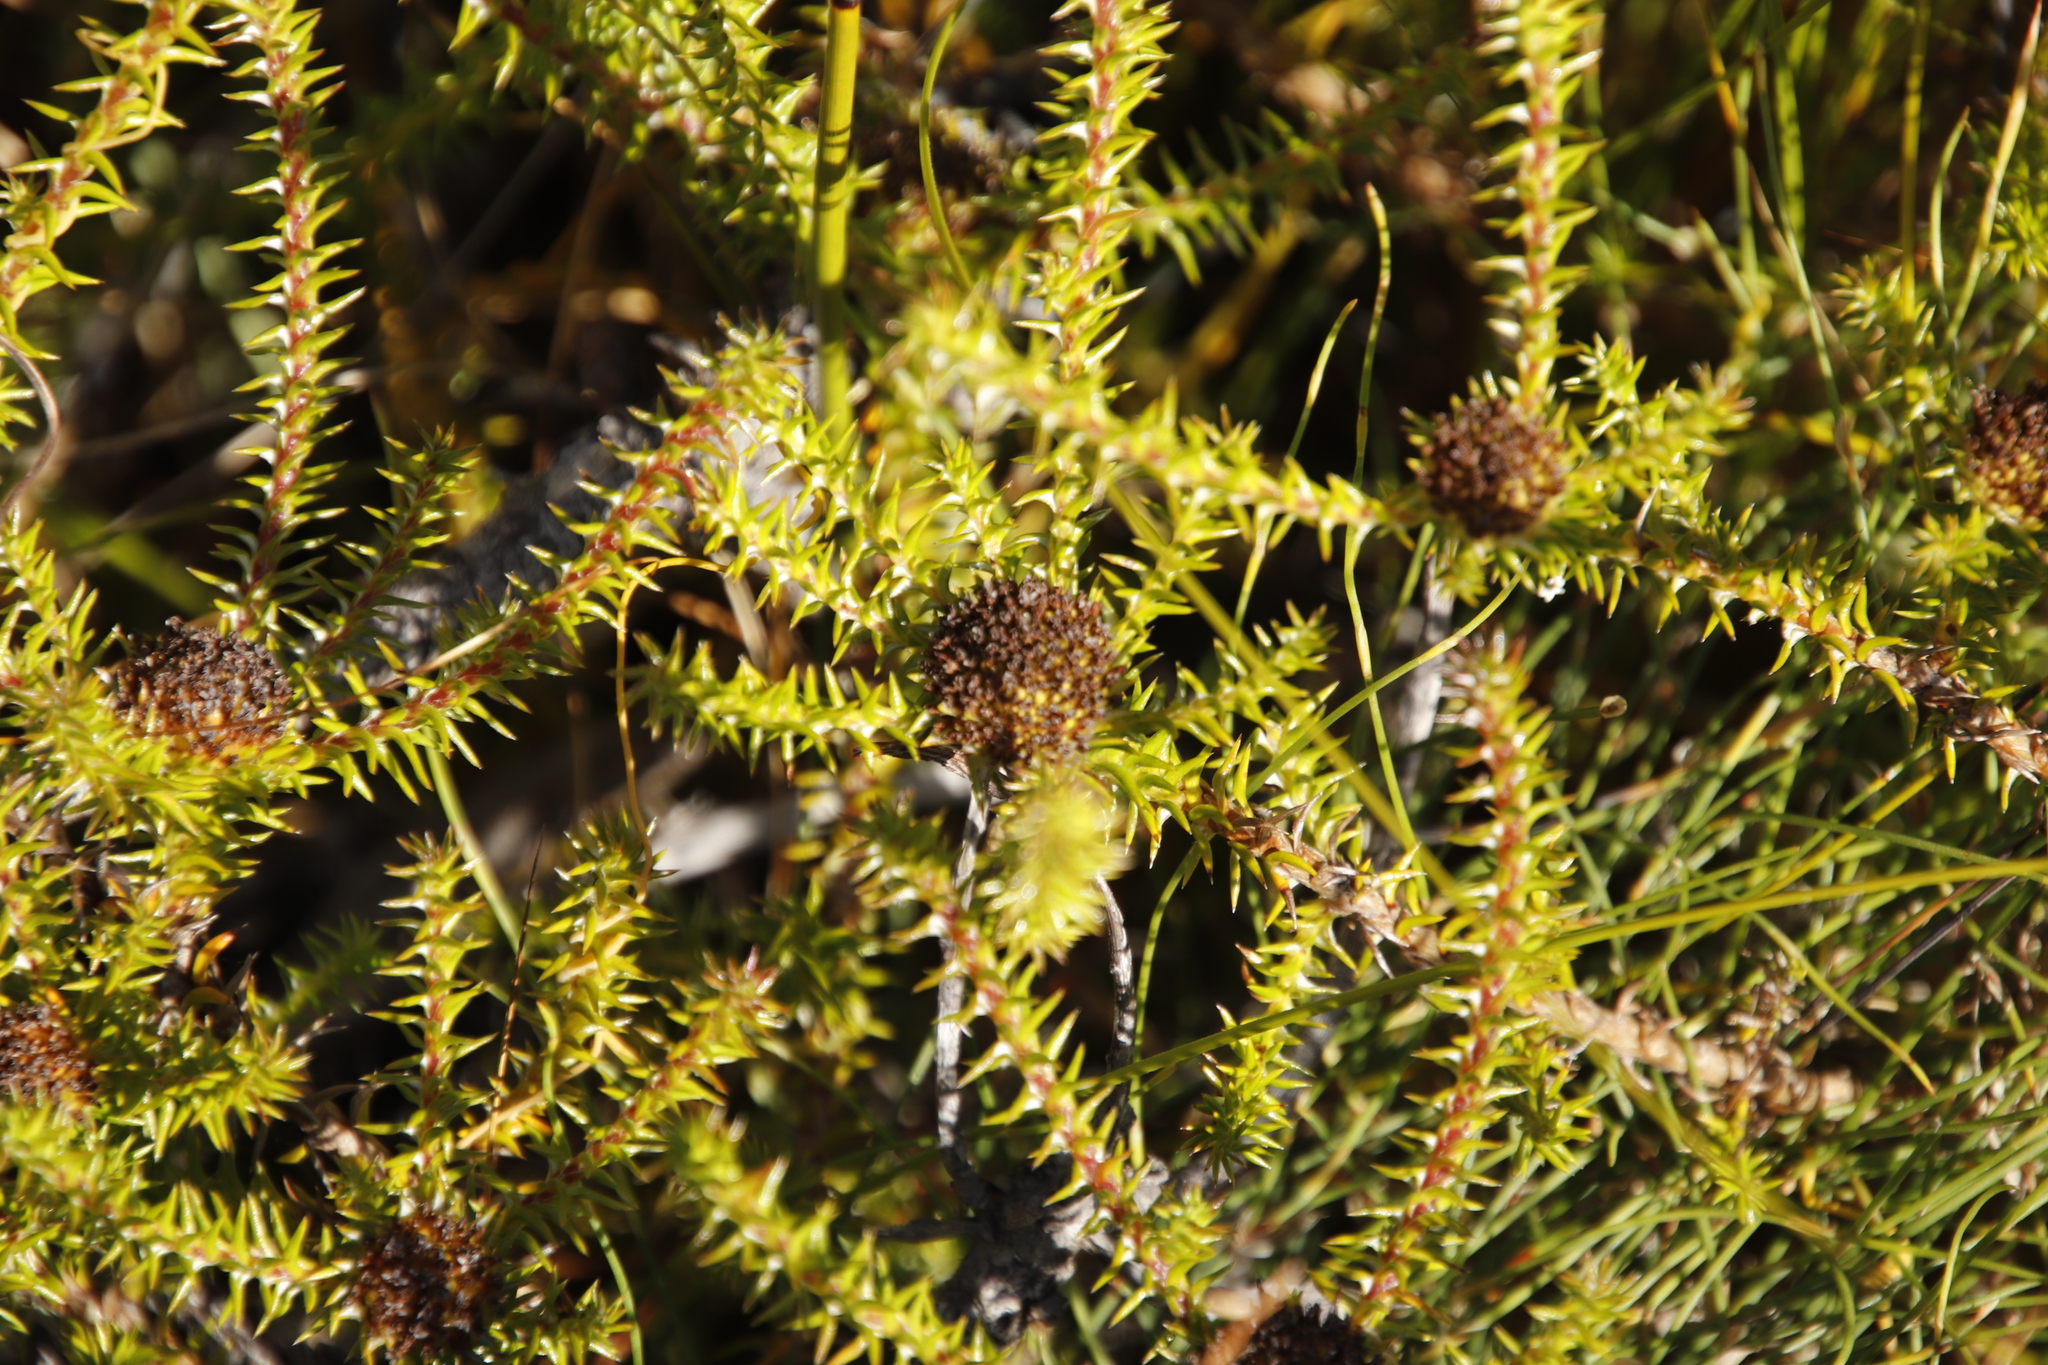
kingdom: Plantae
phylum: Tracheophyta
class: Magnoliopsida
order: Asterales
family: Asteraceae
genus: Stoebe
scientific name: Stoebe aethiopica
